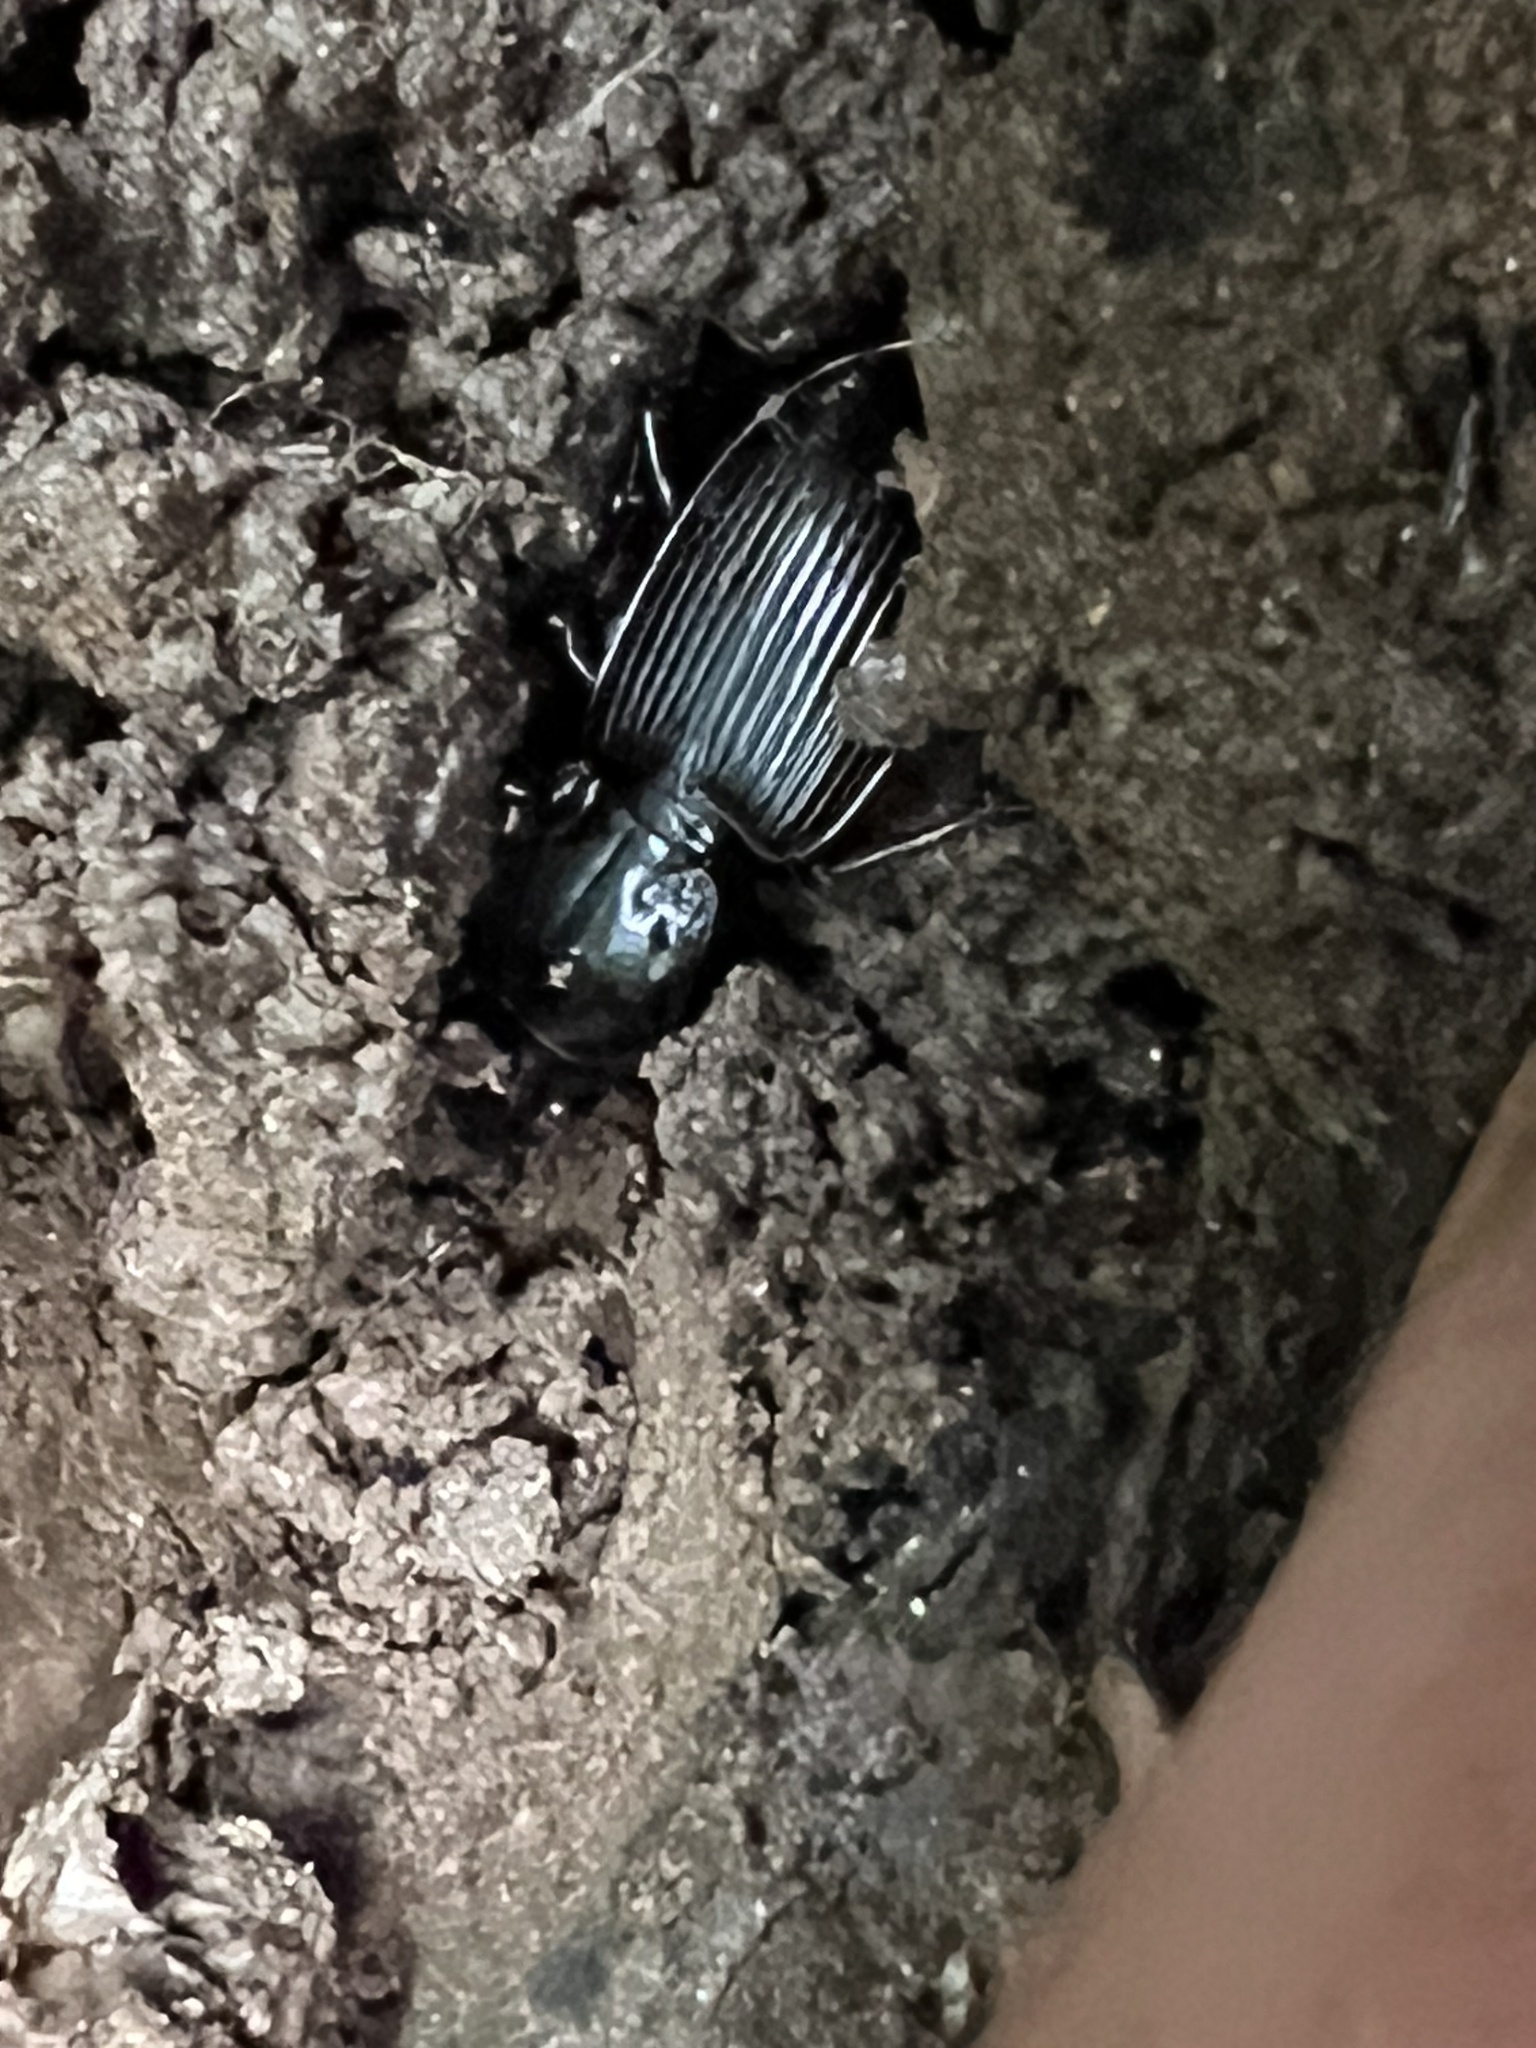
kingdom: Animalia
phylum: Arthropoda
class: Insecta
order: Coleoptera
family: Carabidae
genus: Pterostichus
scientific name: Pterostichus melanarius
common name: European dark harp ground beetle
